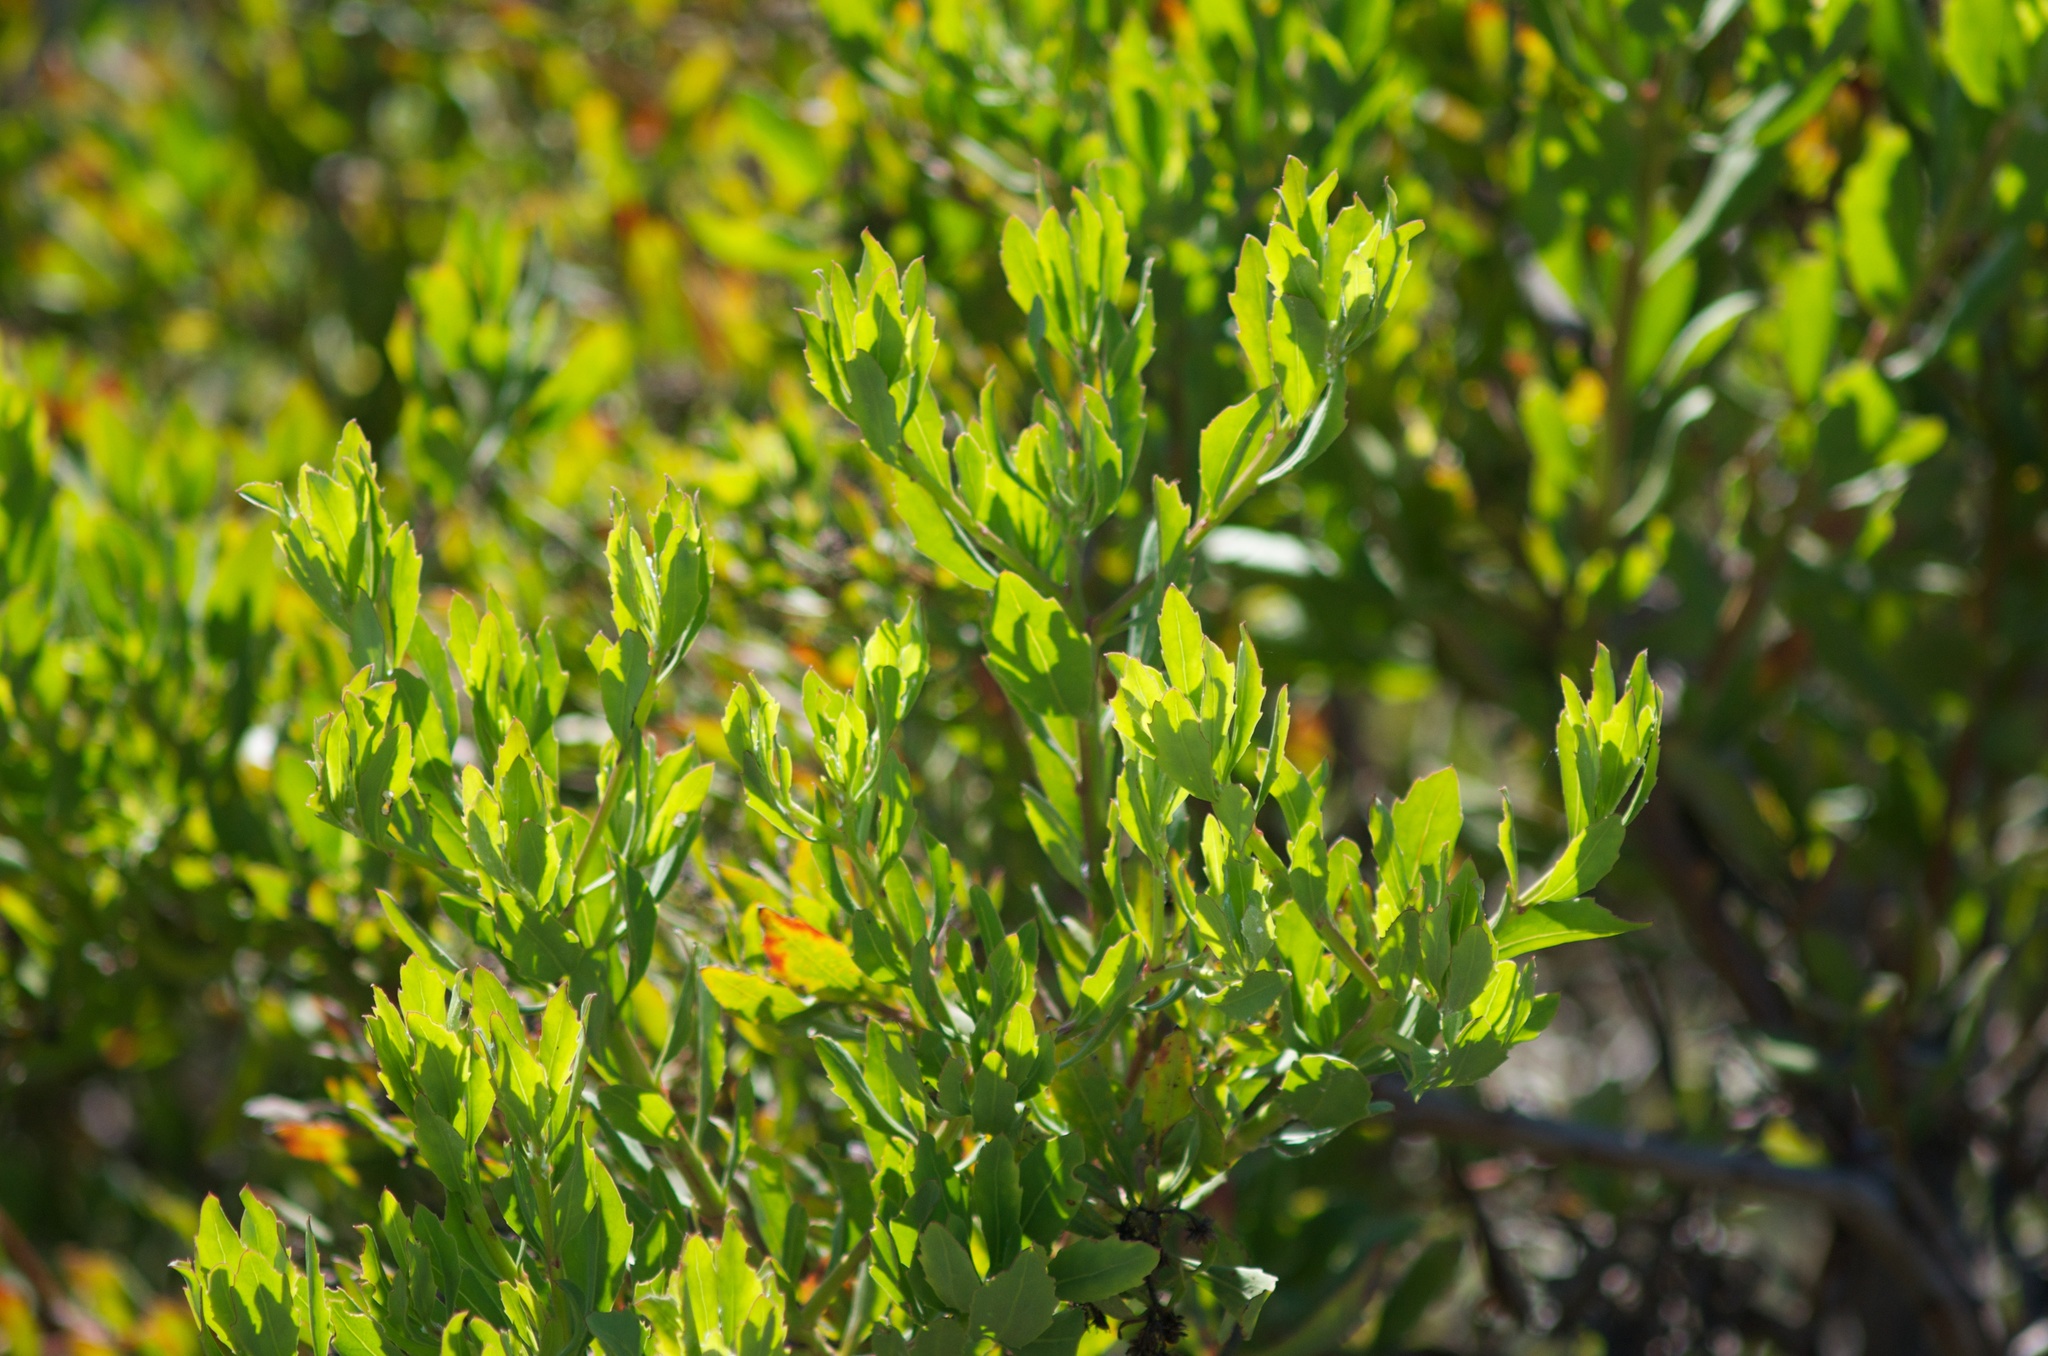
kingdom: Plantae
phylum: Tracheophyta
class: Magnoliopsida
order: Asterales
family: Asteraceae
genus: Osteospermum
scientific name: Osteospermum moniliferum
